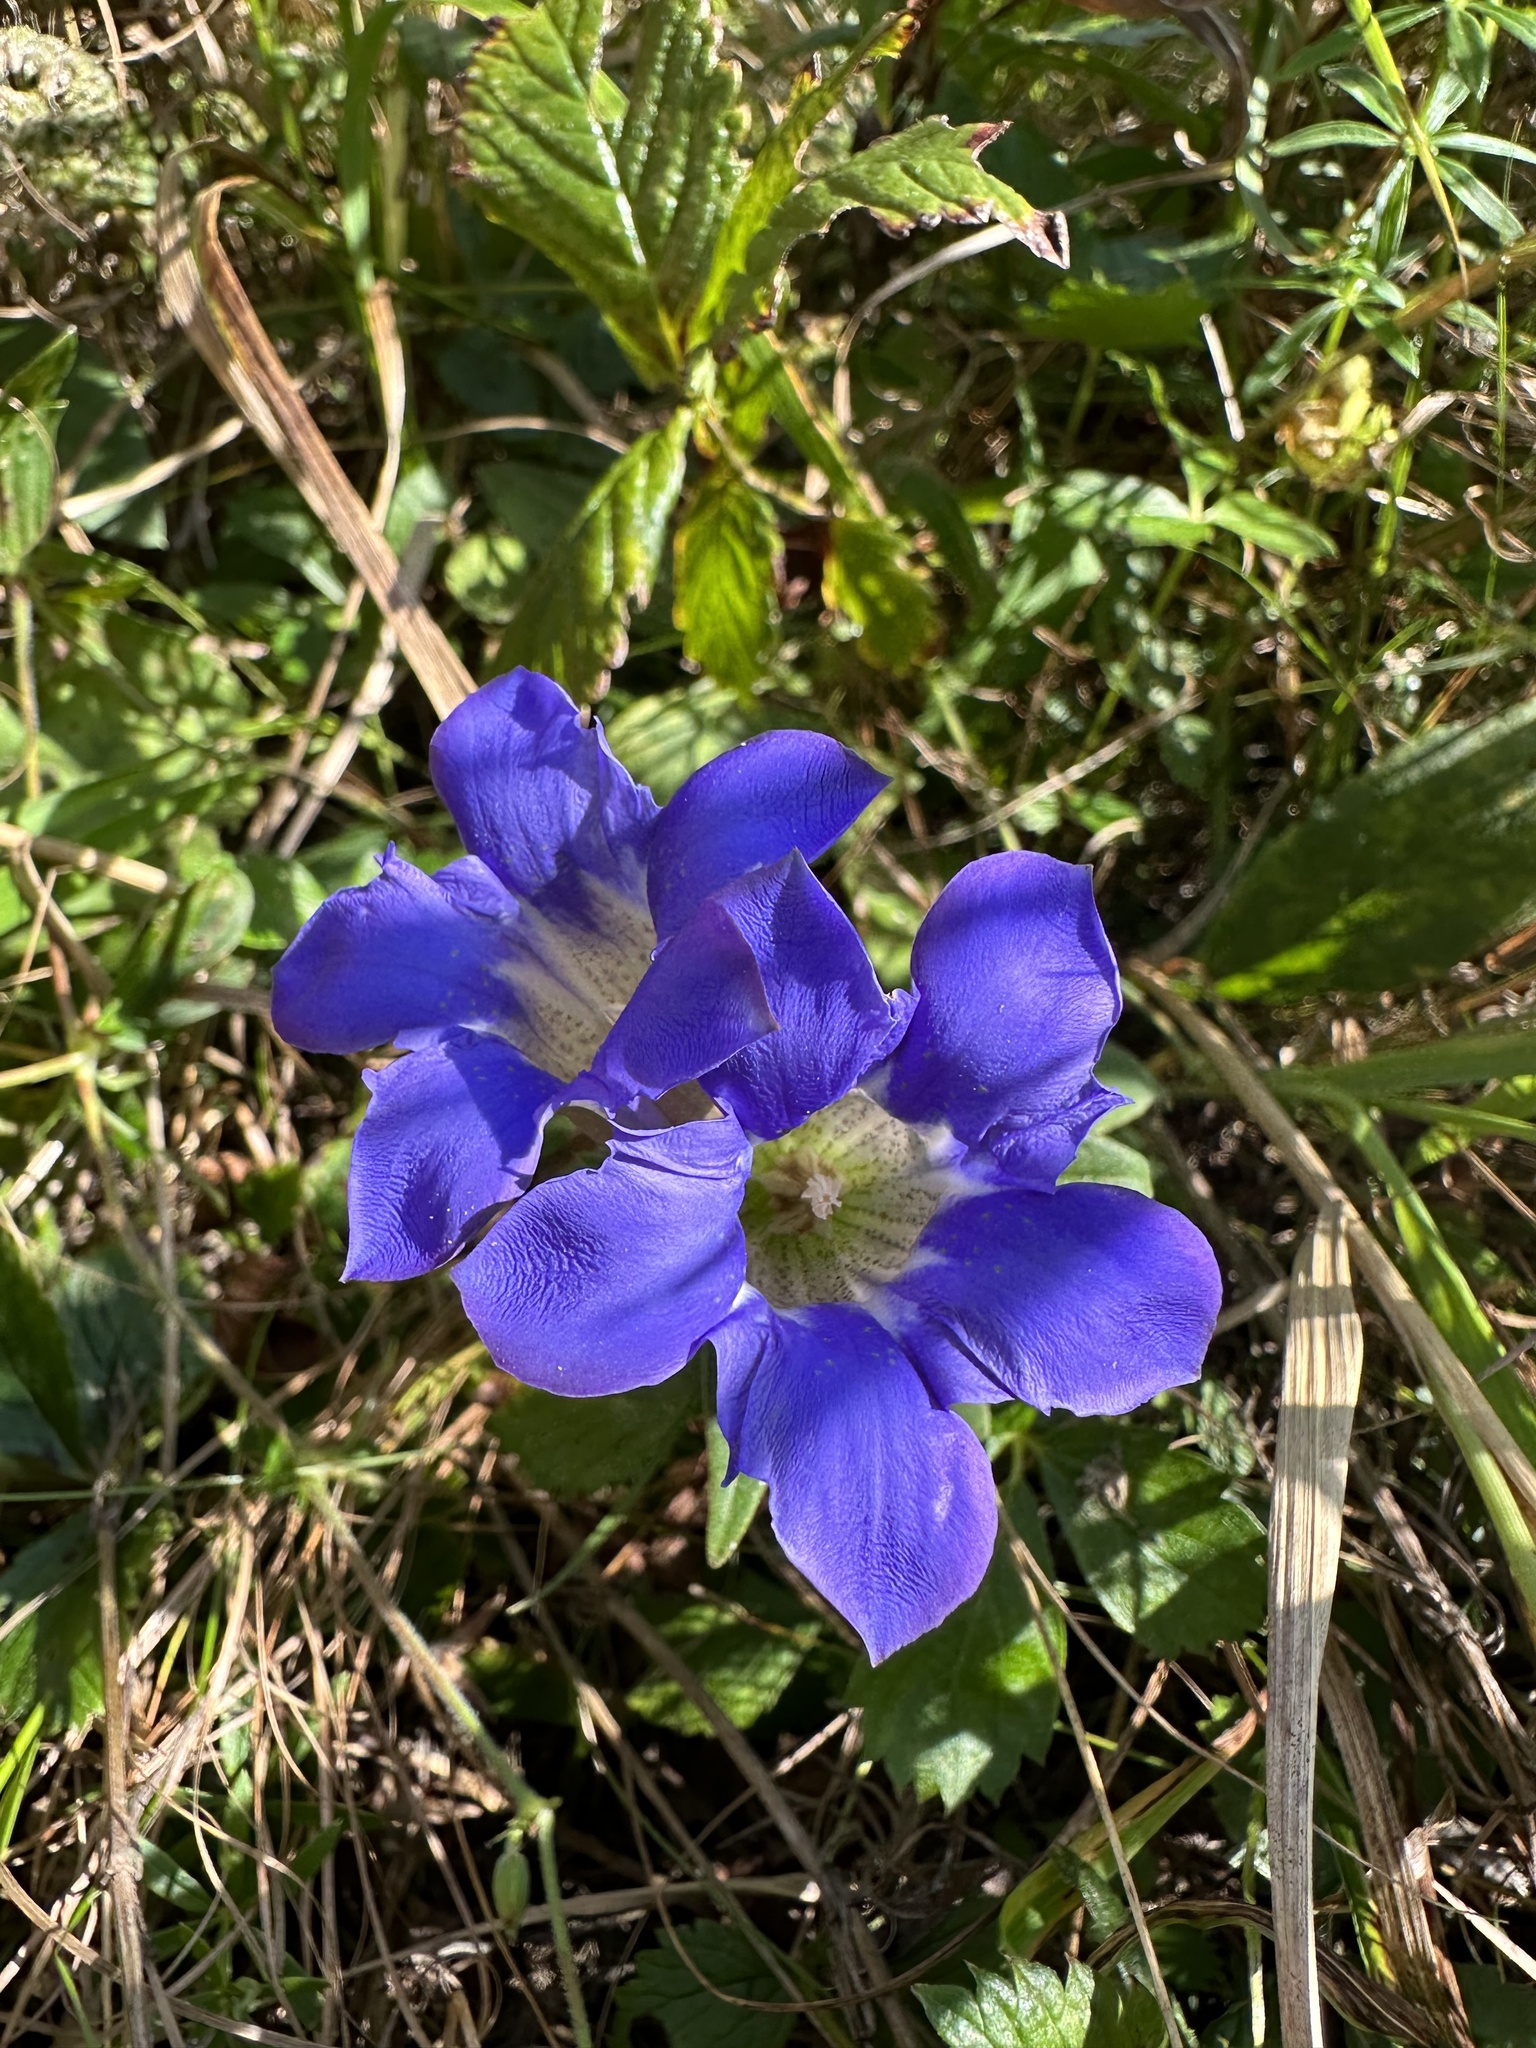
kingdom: Plantae
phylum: Tracheophyta
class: Magnoliopsida
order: Gentianales
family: Gentianaceae
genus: Gentiana
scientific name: Gentiana scabra
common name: Scabrous gentian
